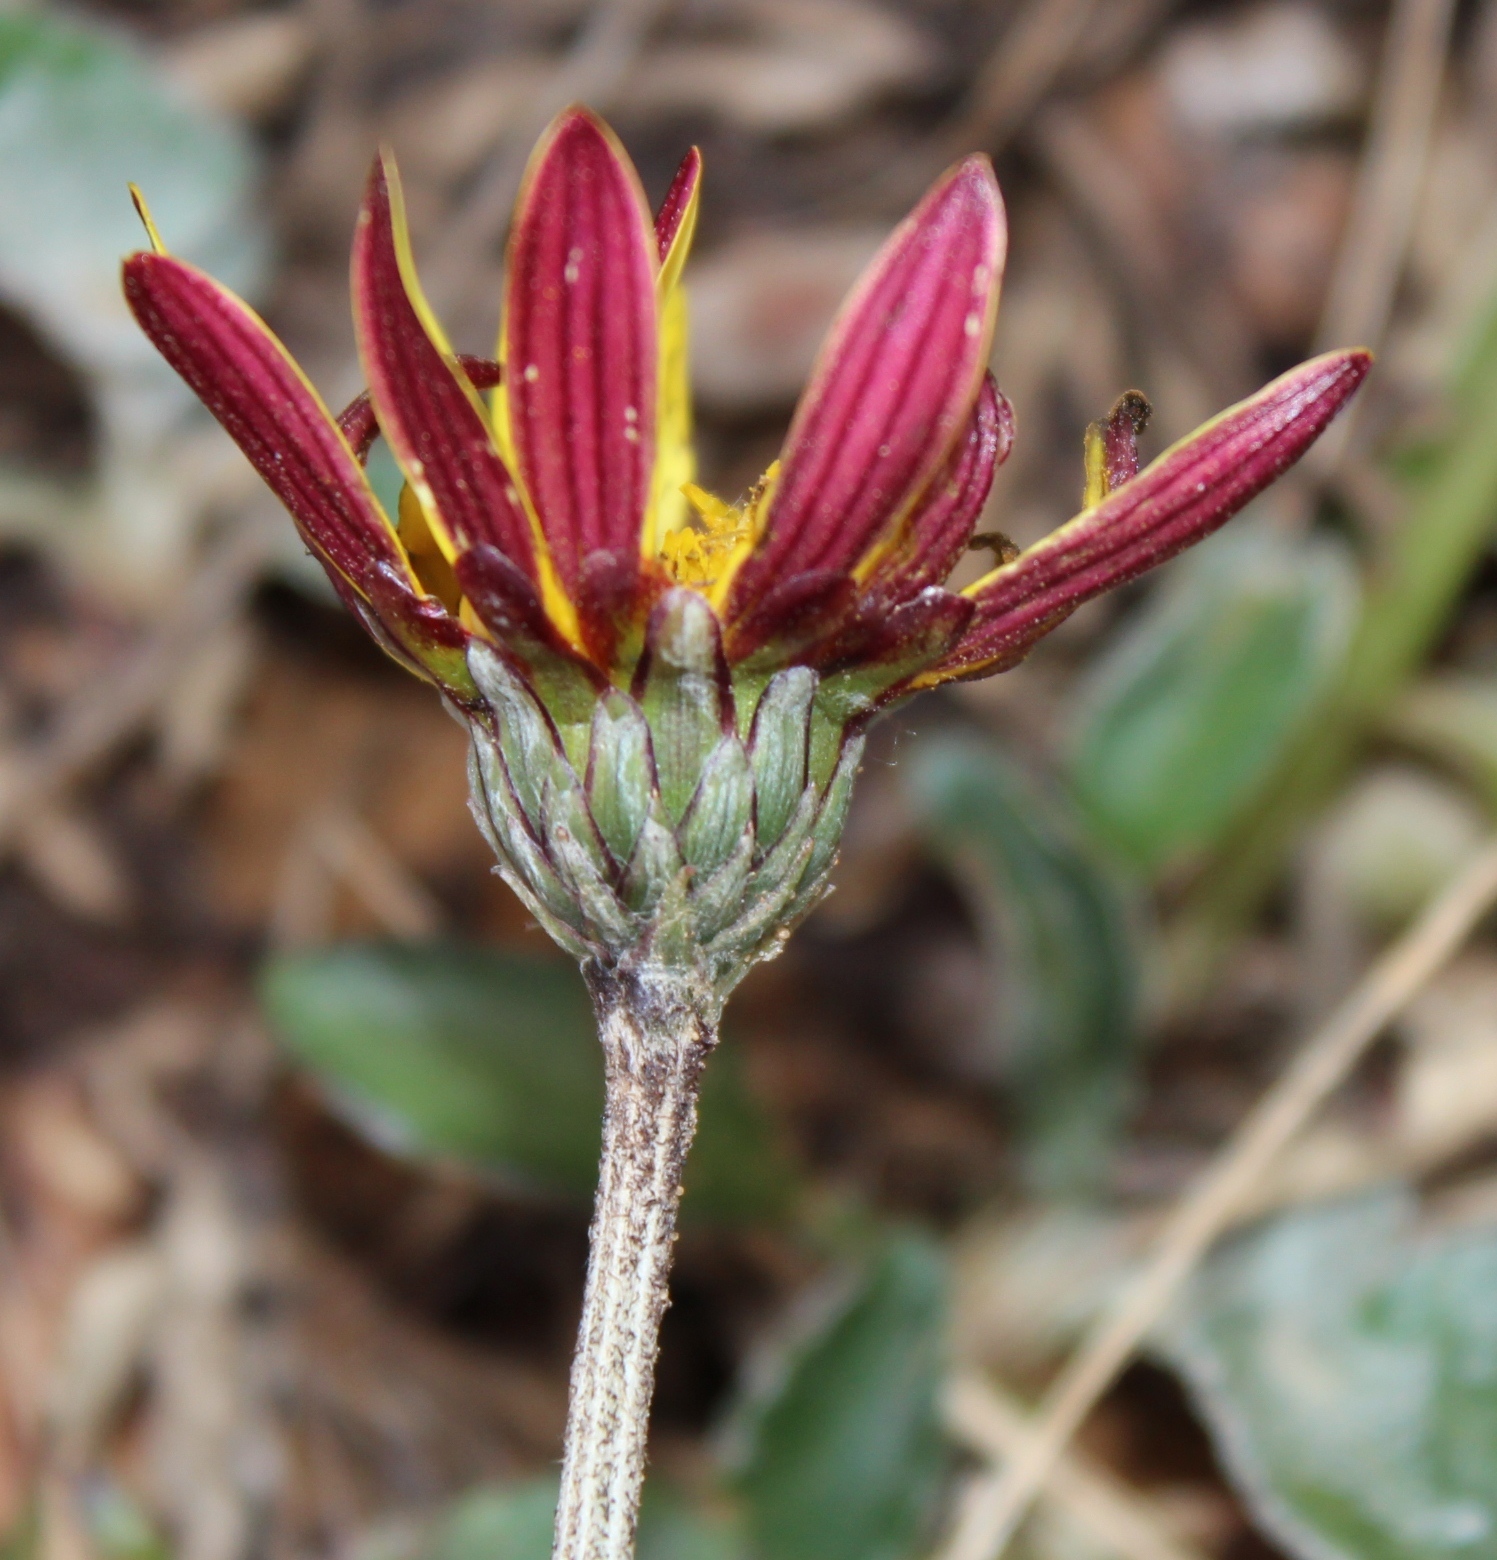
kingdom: Plantae
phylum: Tracheophyta
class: Magnoliopsida
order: Asterales
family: Asteraceae
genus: Haplocarpha
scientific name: Haplocarpha lyrata
